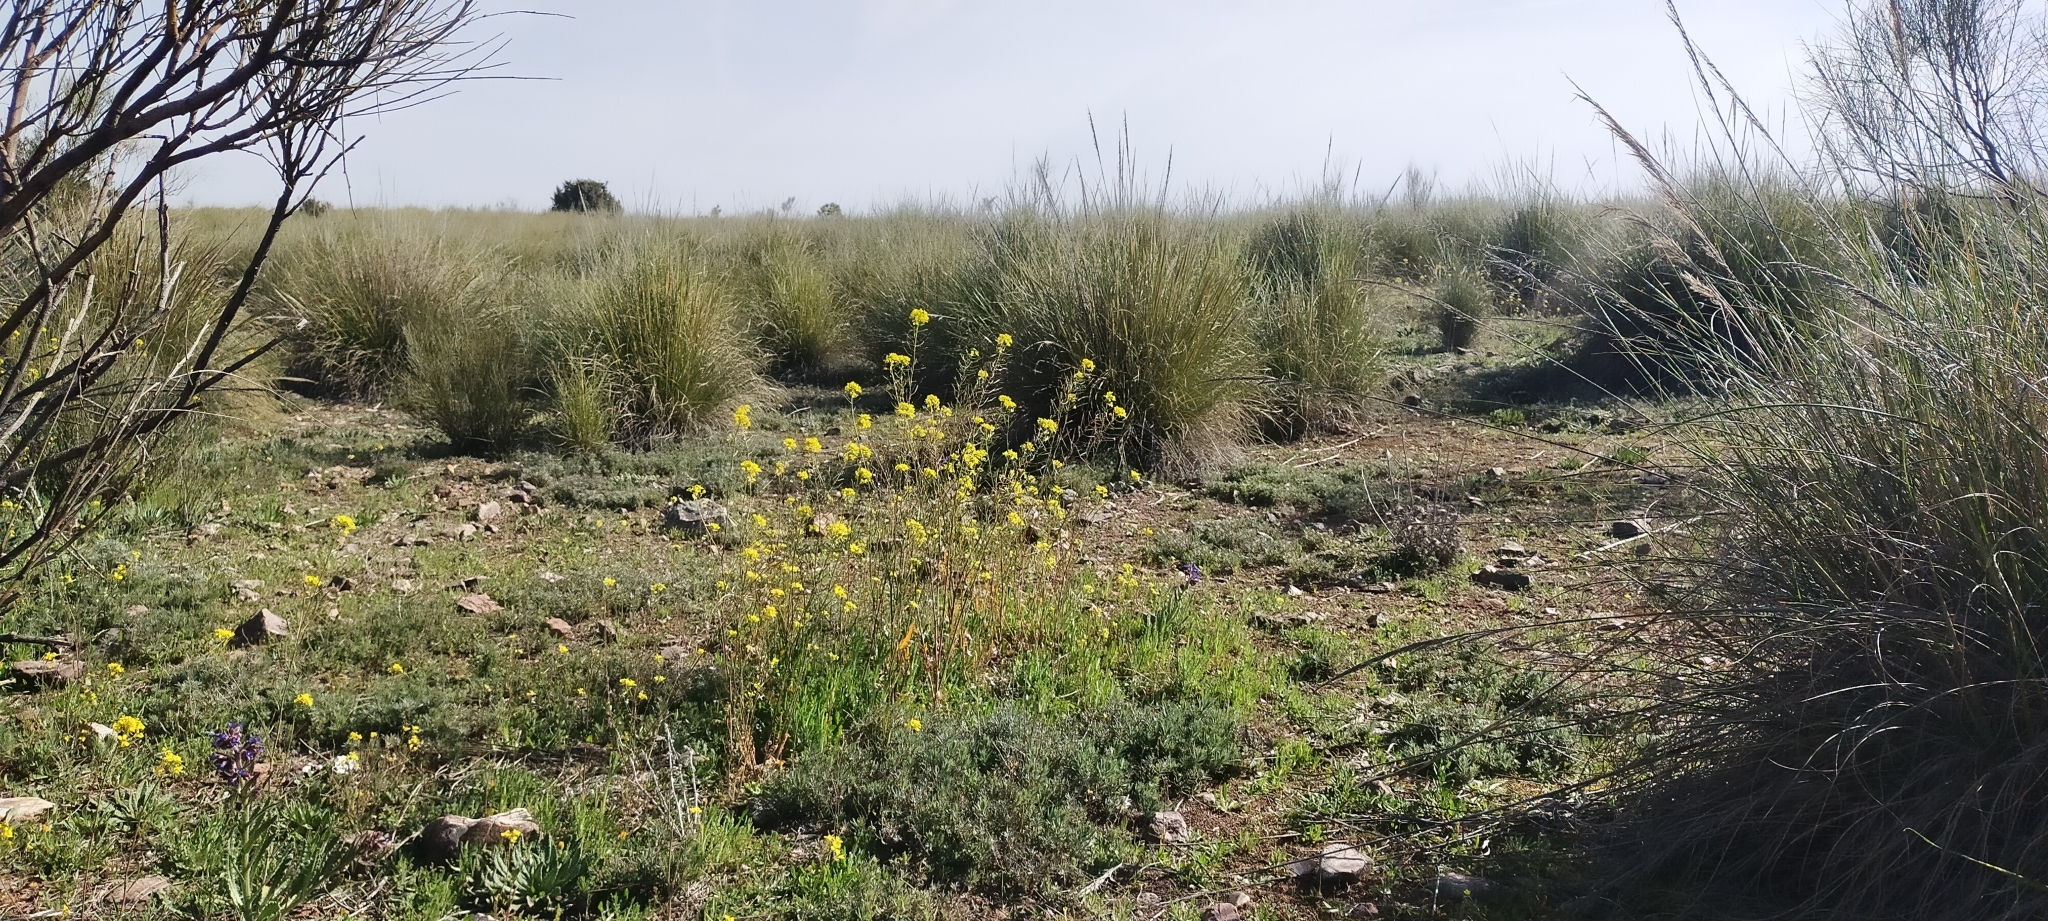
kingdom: Plantae
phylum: Tracheophyta
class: Liliopsida
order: Poales
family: Poaceae
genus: Macrochloa
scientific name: Macrochloa tenacissima
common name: Alfa grass
